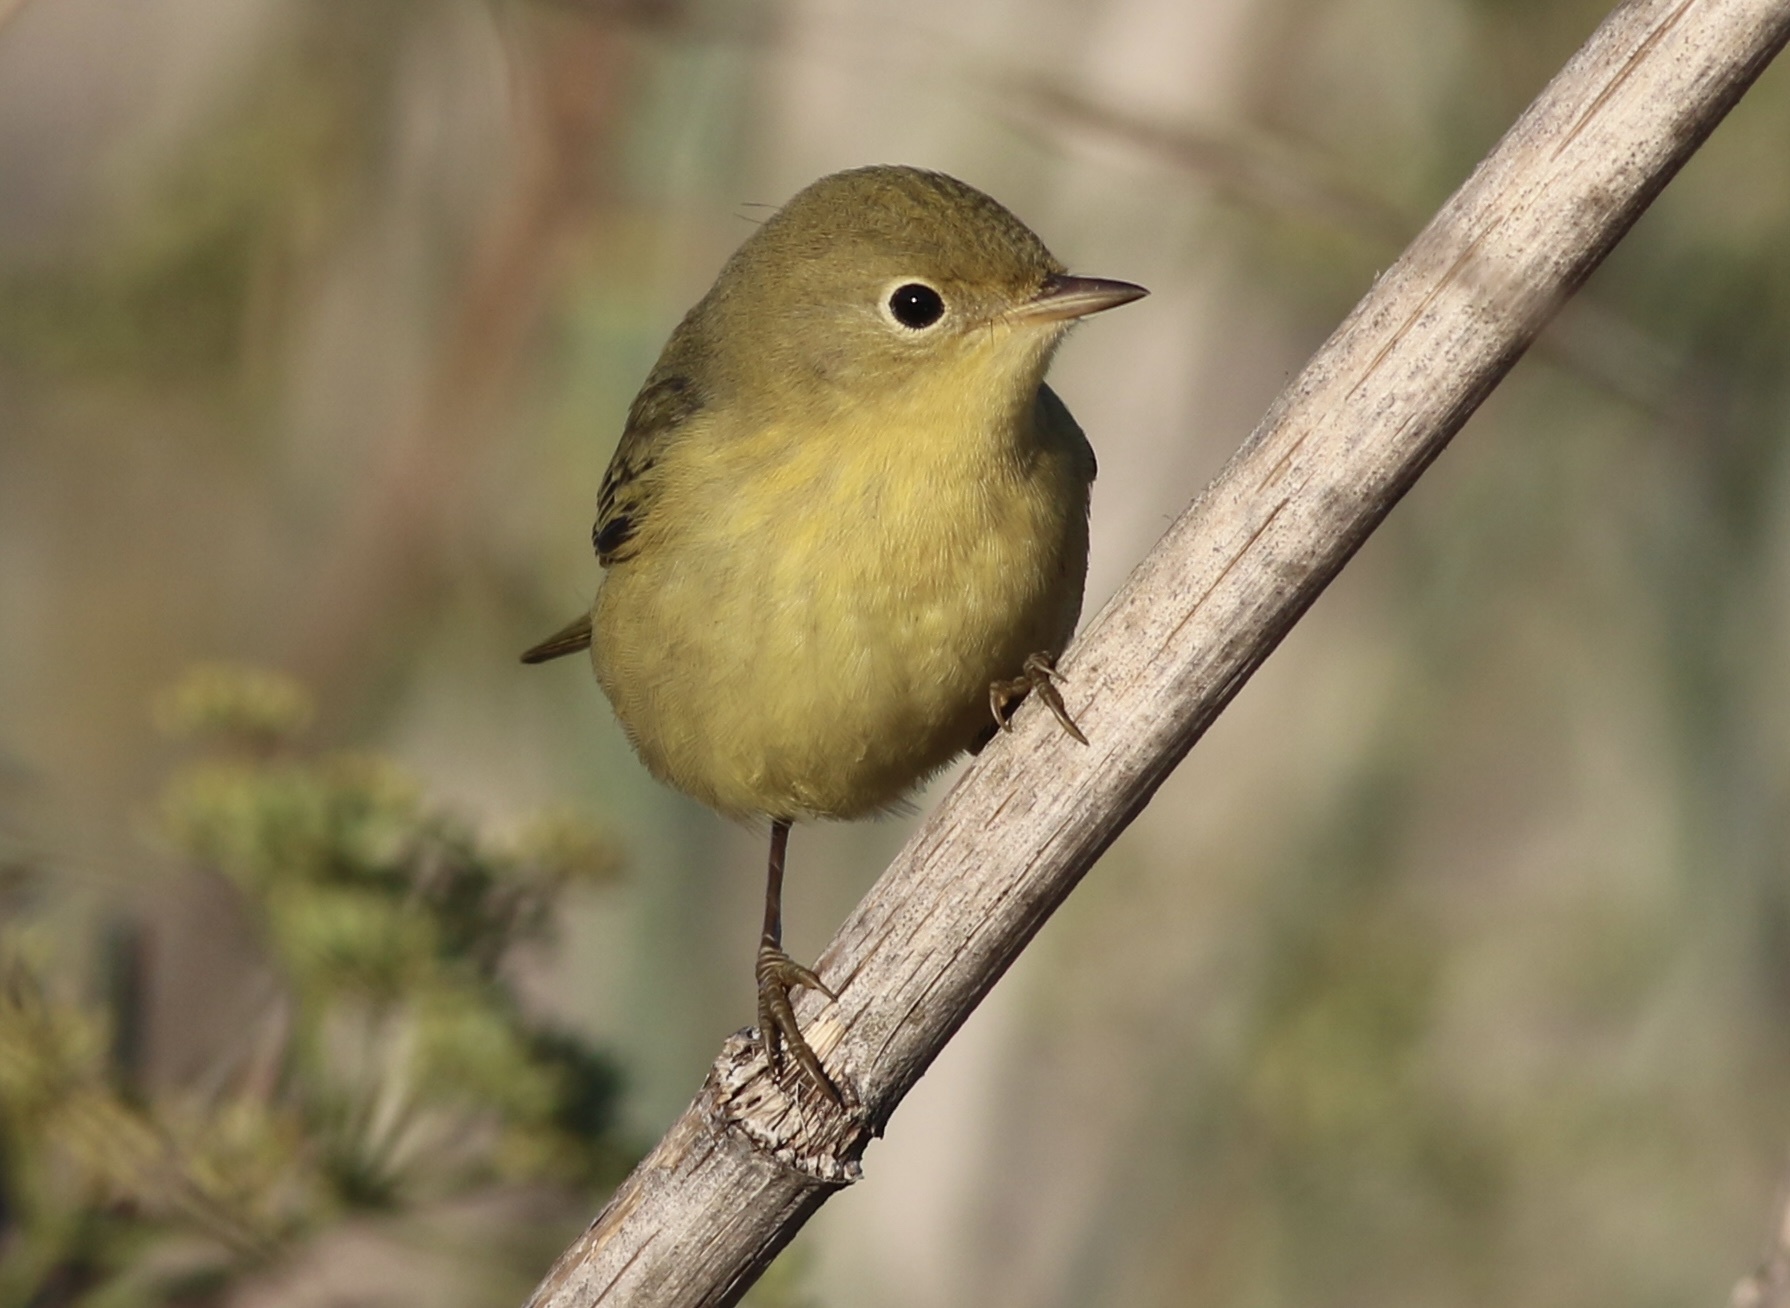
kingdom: Animalia
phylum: Chordata
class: Aves
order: Passeriformes
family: Parulidae
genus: Setophaga
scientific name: Setophaga petechia
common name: Yellow warbler
